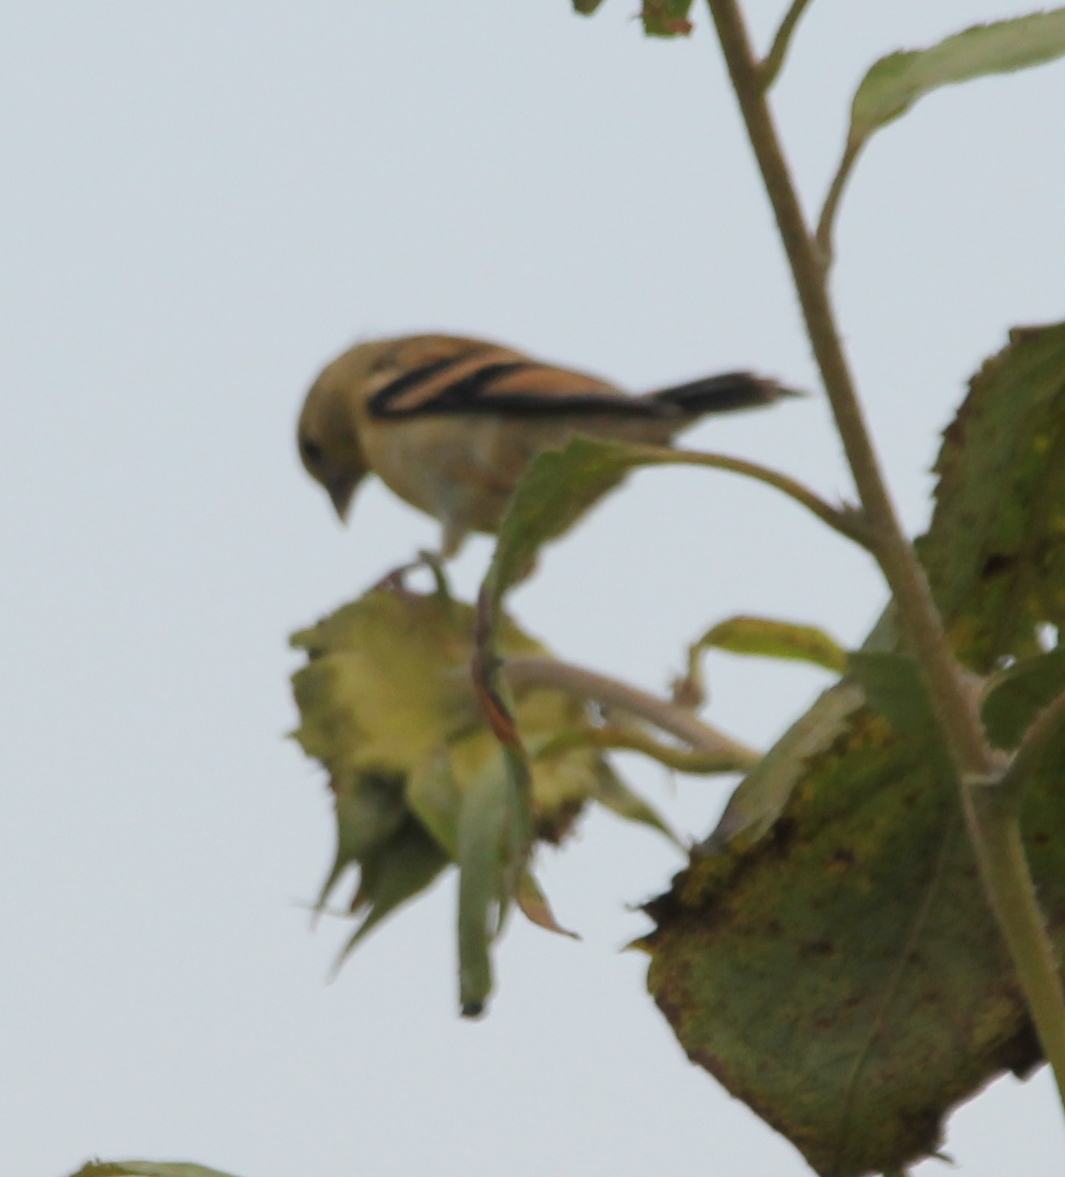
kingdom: Animalia
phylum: Chordata
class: Aves
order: Passeriformes
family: Fringillidae
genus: Spinus
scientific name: Spinus tristis
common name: American goldfinch
